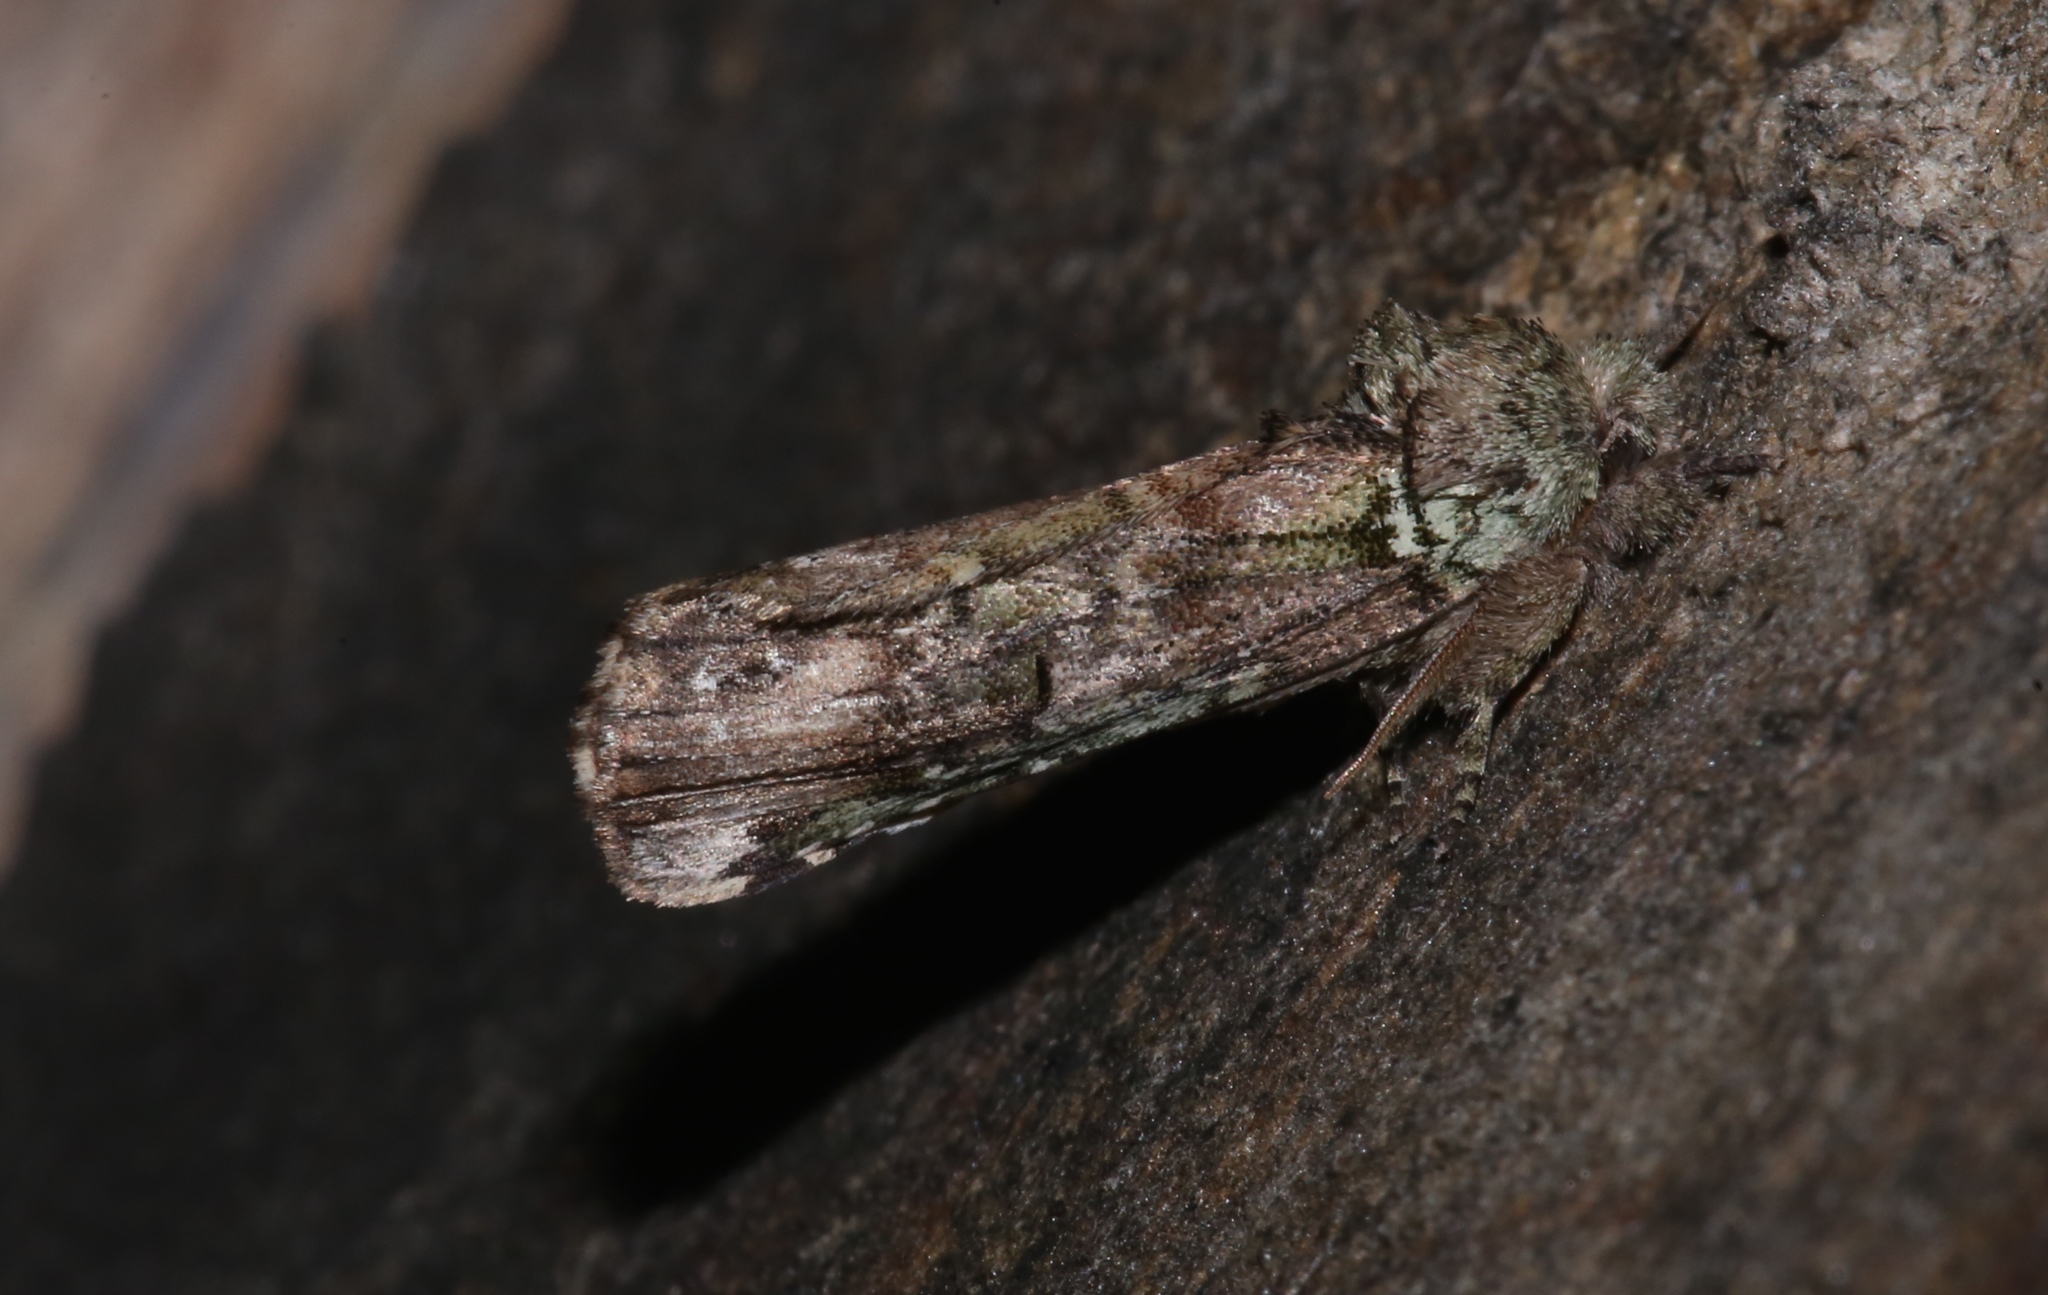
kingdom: Animalia
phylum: Arthropoda
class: Insecta
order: Lepidoptera
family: Notodontidae
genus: Schizura
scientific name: Schizura
